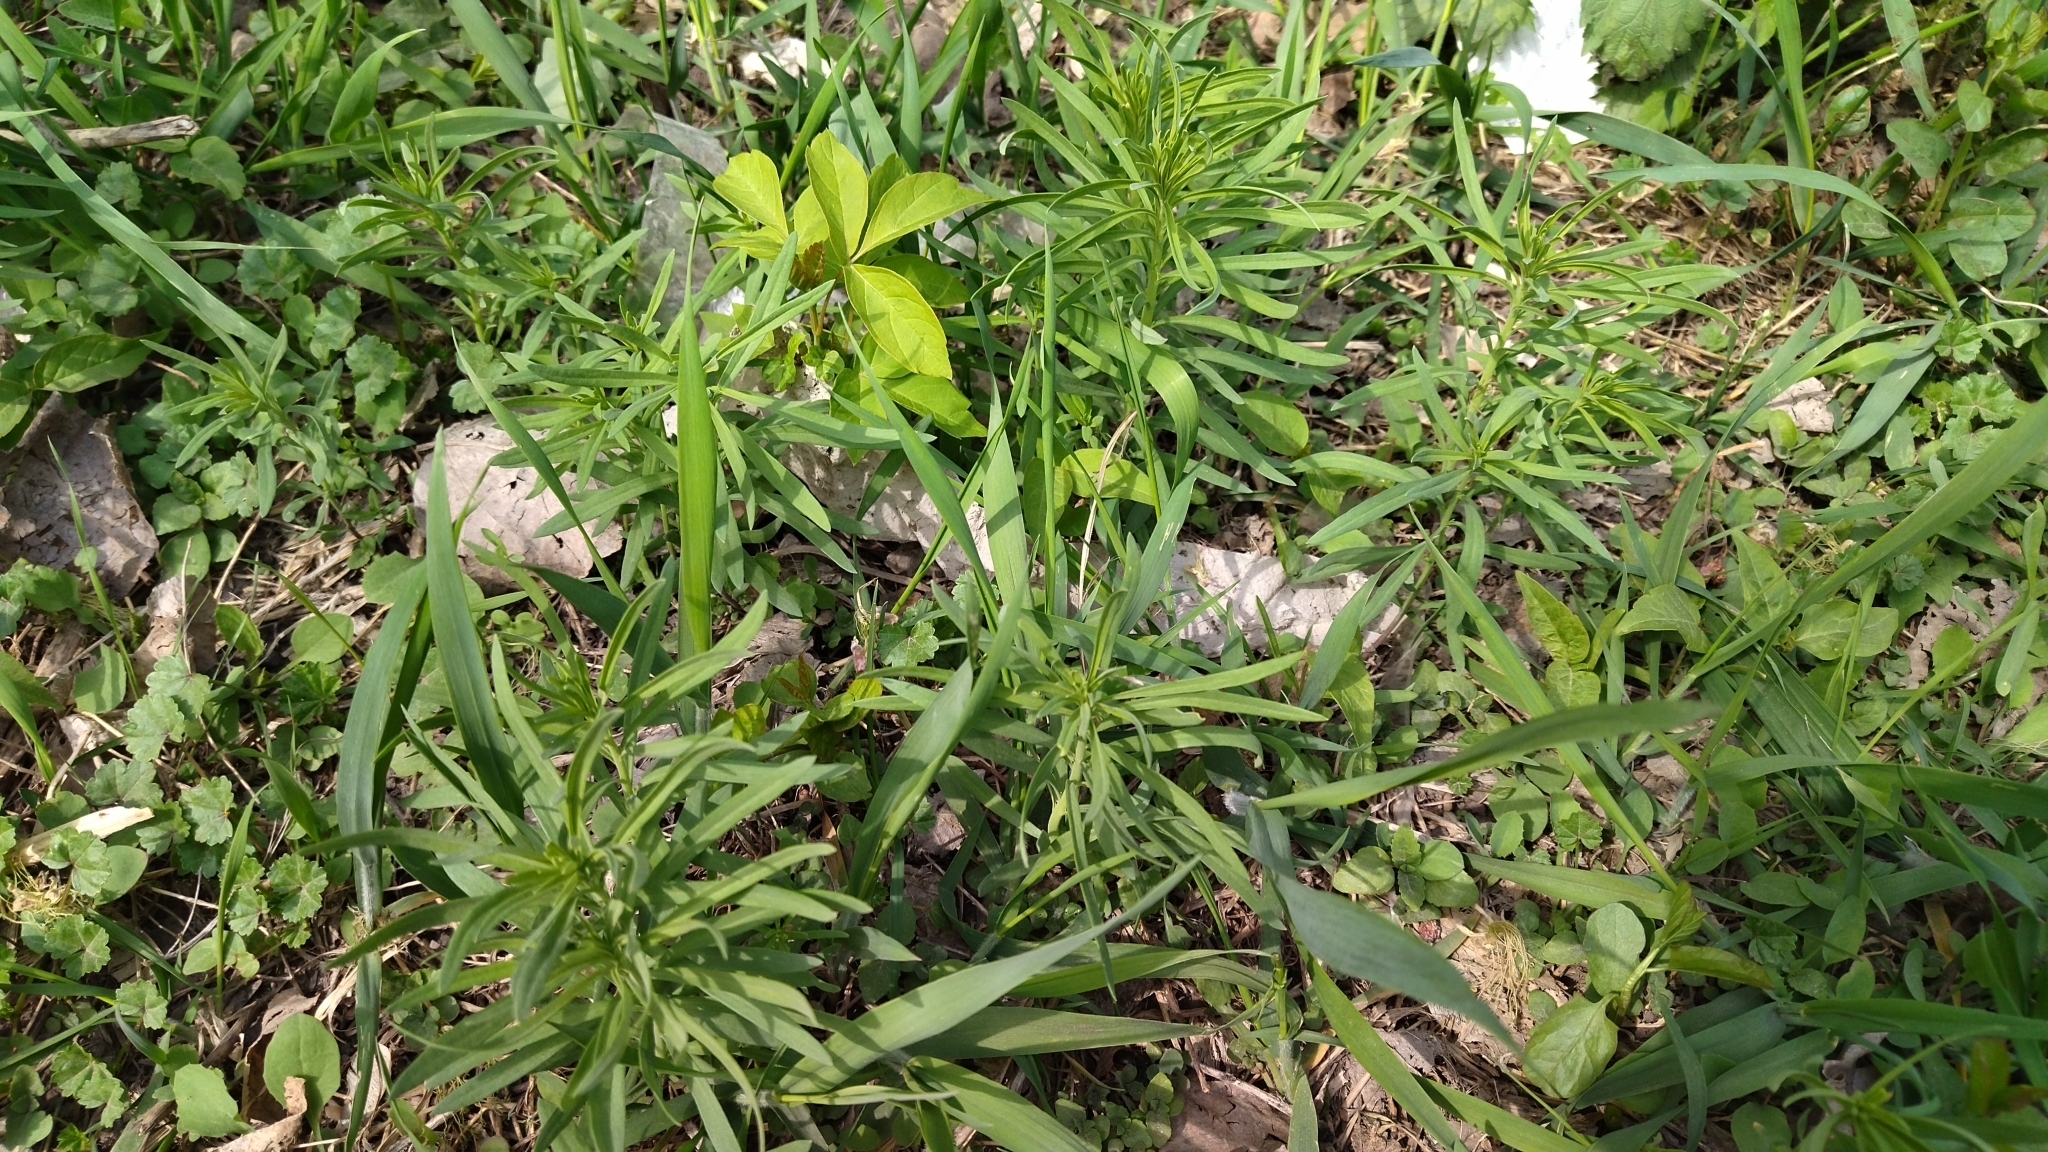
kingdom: Plantae
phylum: Tracheophyta
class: Magnoliopsida
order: Lamiales
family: Plantaginaceae
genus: Linaria
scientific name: Linaria vulgaris
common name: Butter and eggs
